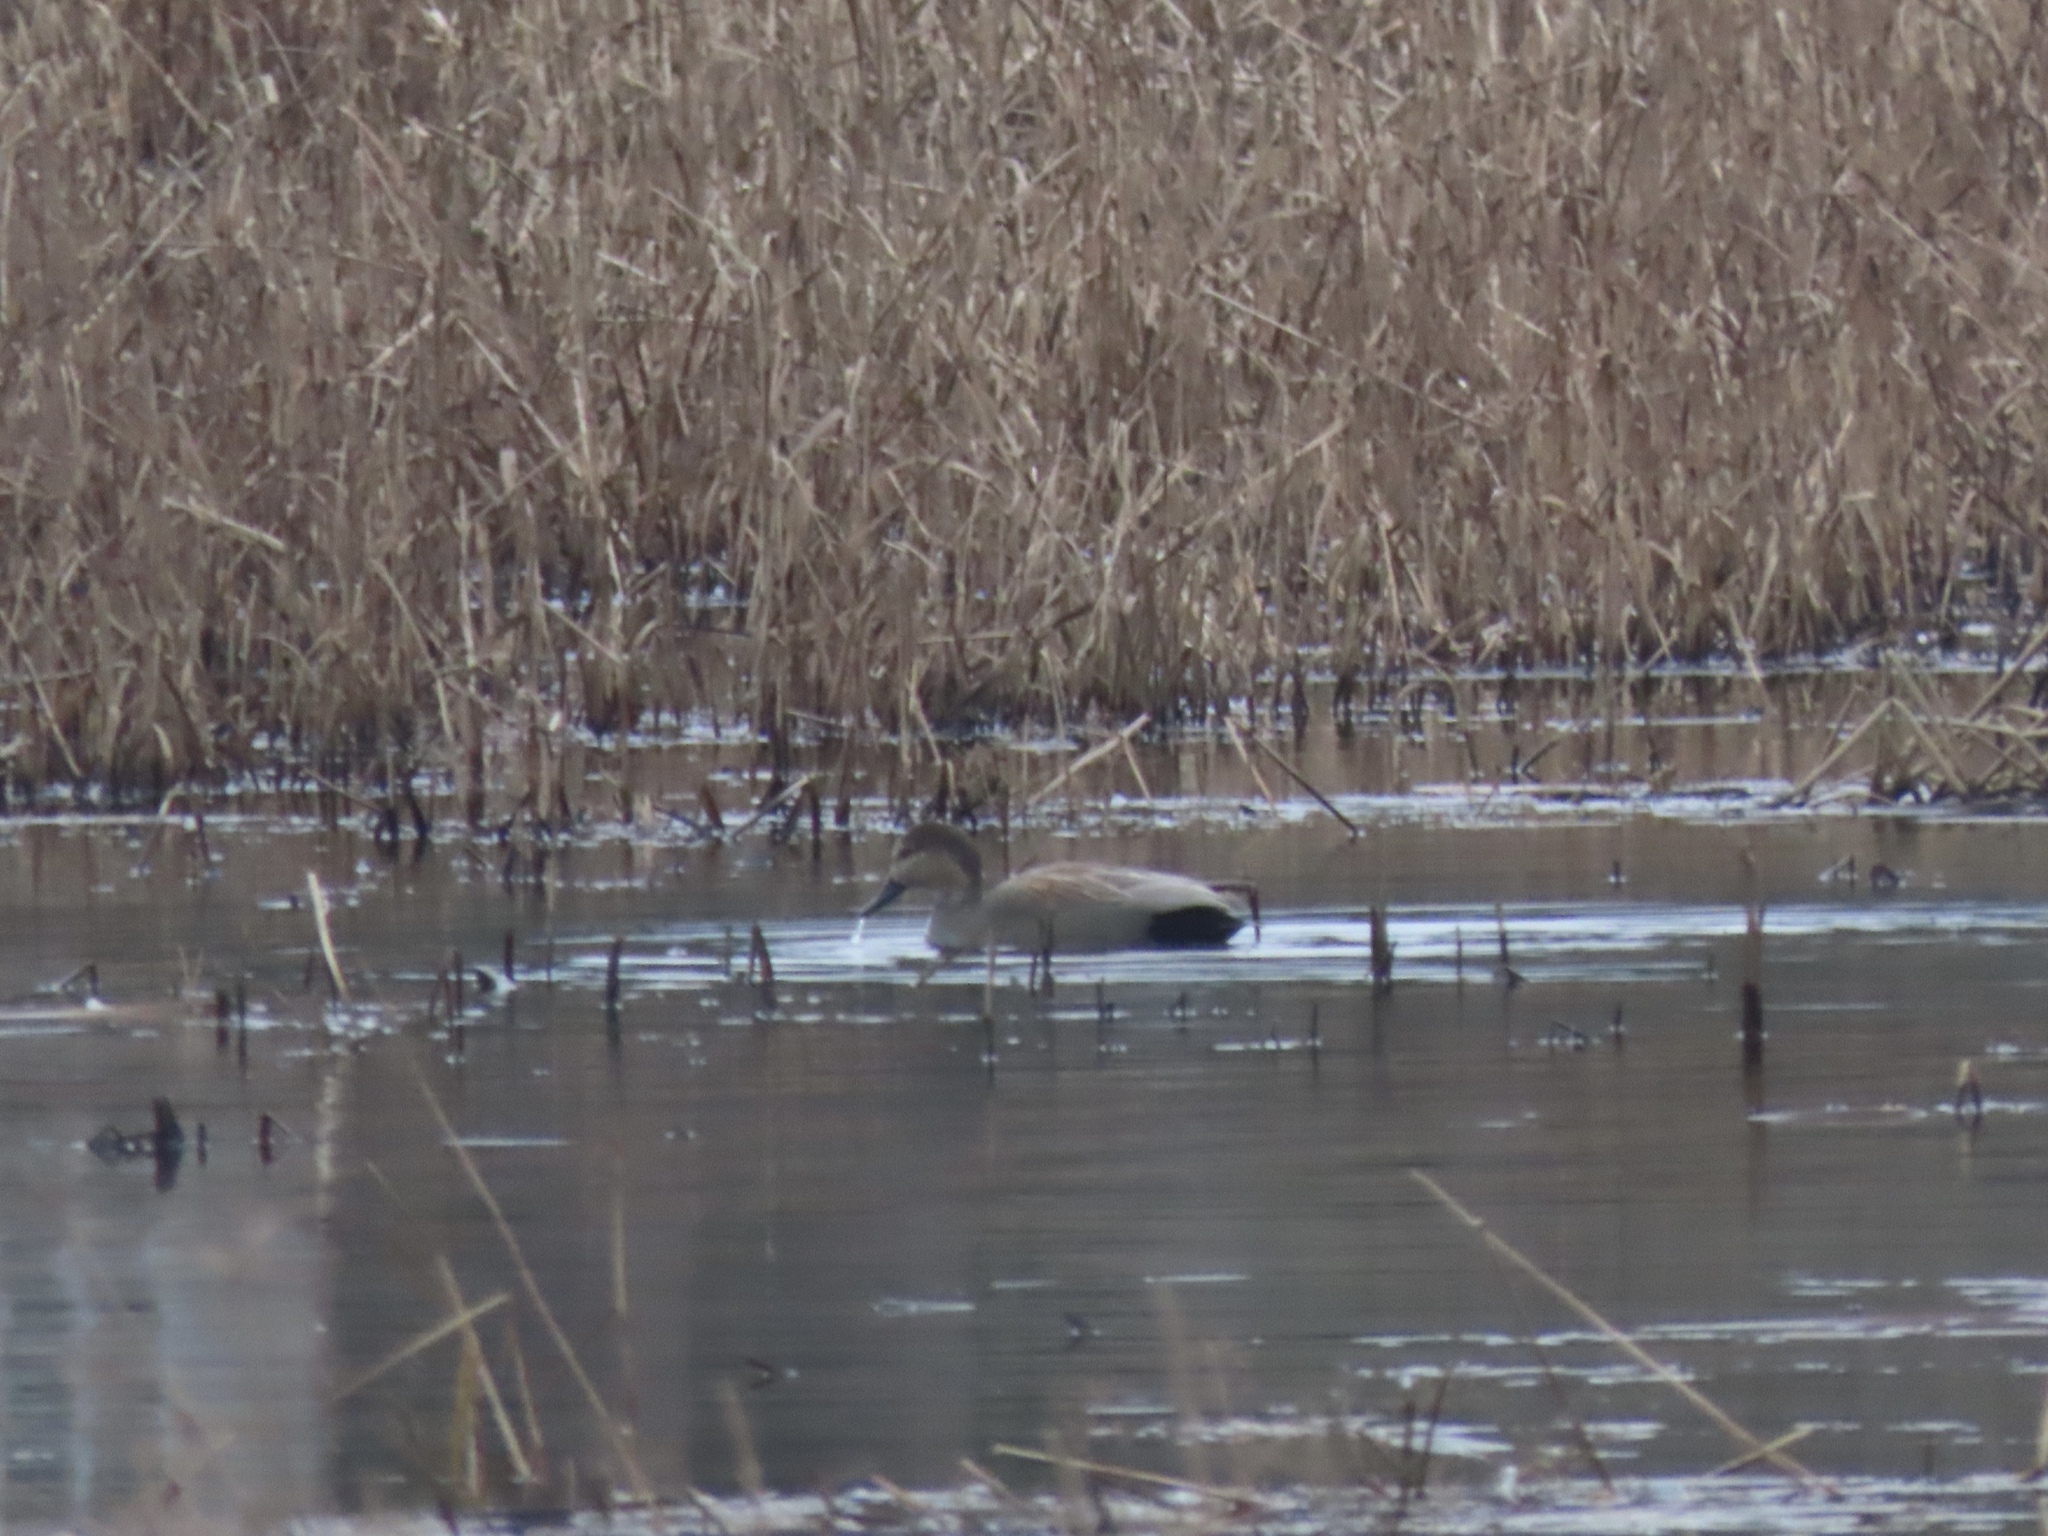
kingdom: Animalia
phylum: Chordata
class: Aves
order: Anseriformes
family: Anatidae
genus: Mareca
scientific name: Mareca strepera
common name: Gadwall
